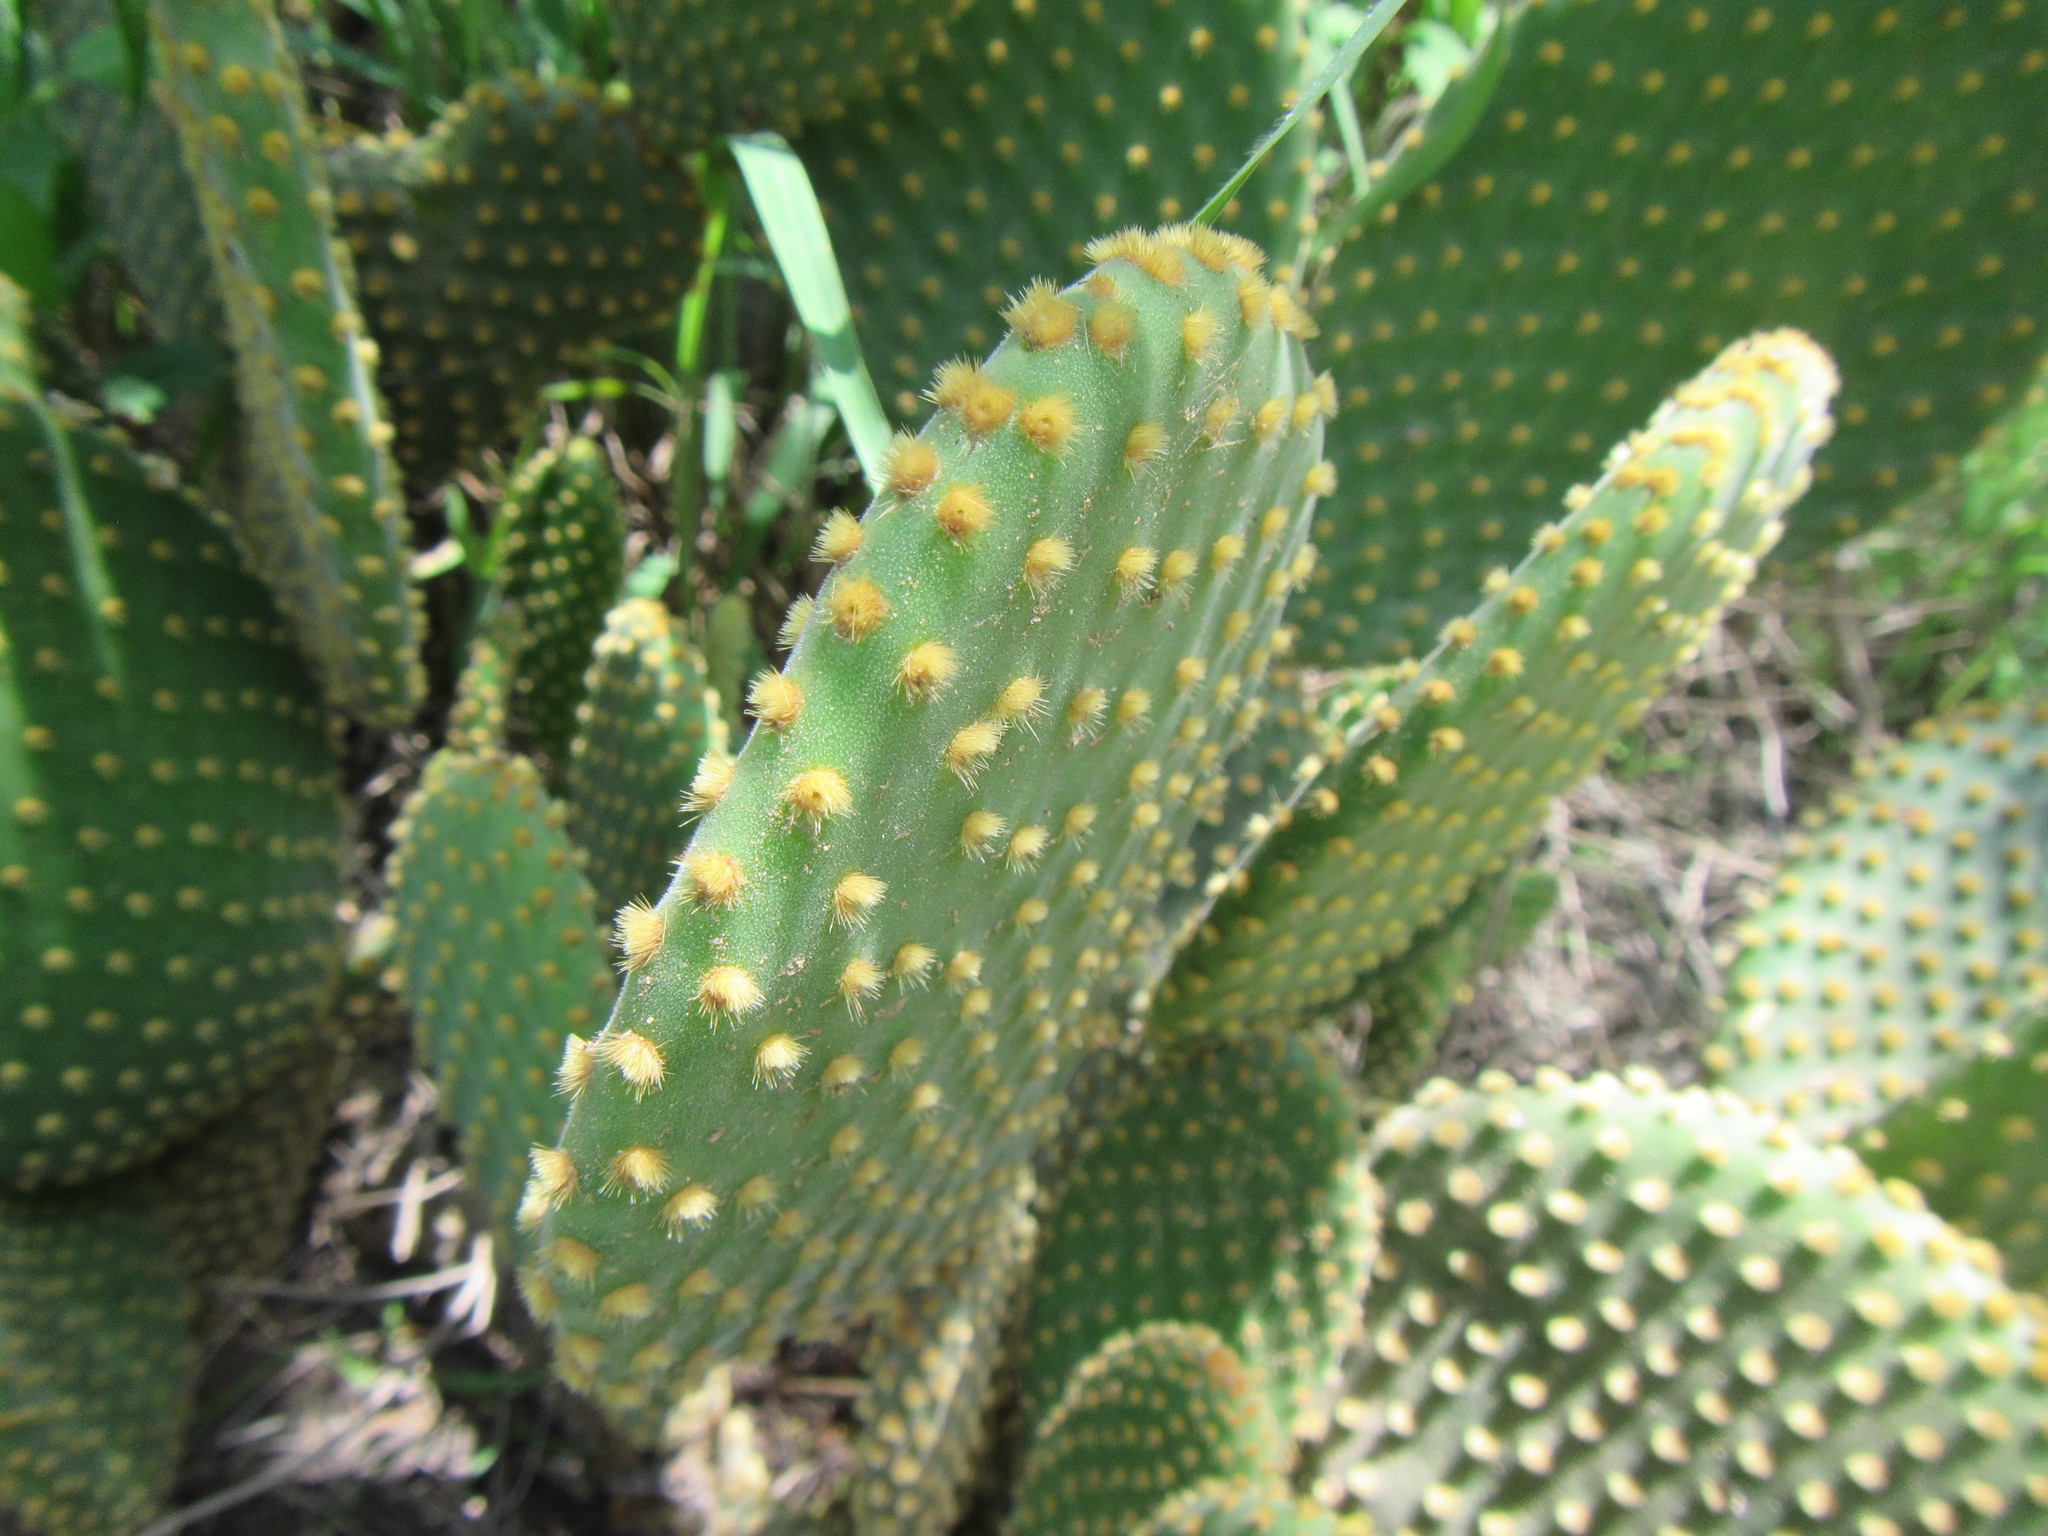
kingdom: Plantae
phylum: Tracheophyta
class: Magnoliopsida
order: Caryophyllales
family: Cactaceae
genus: Opuntia
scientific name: Opuntia microdasys
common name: Angel's-wings
